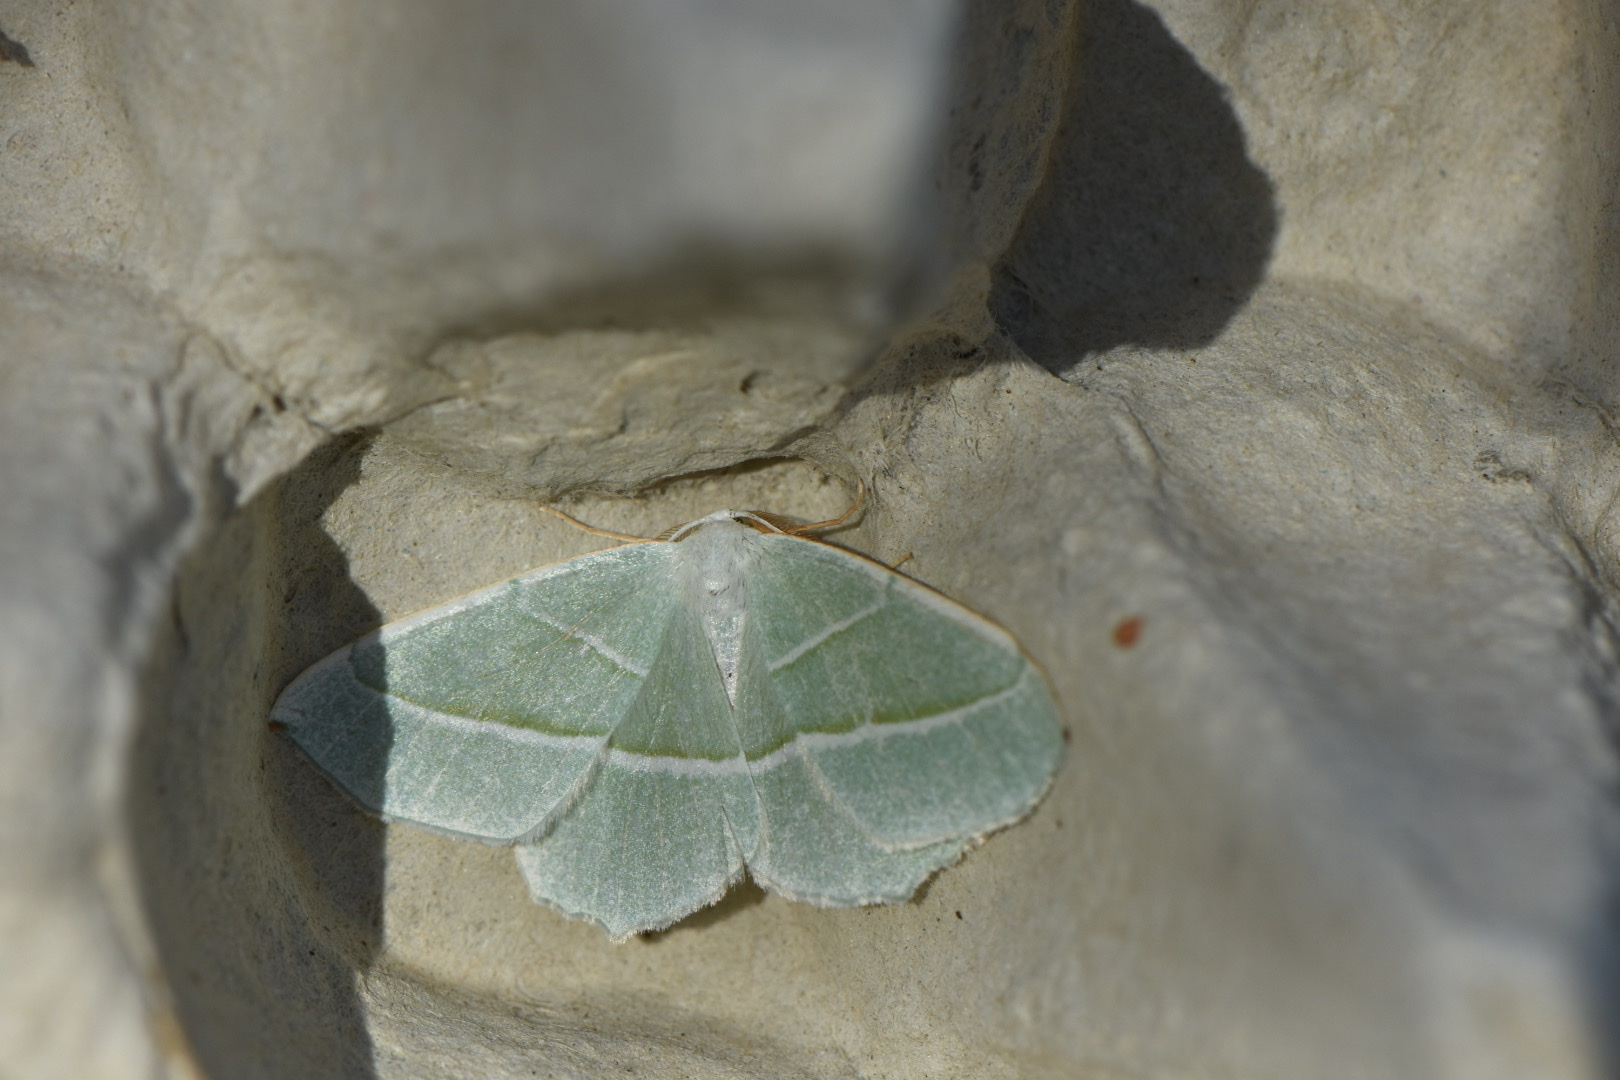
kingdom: Animalia
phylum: Arthropoda
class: Insecta
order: Lepidoptera
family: Geometridae
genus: Campaea
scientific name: Campaea margaritaria
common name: Light emerald
